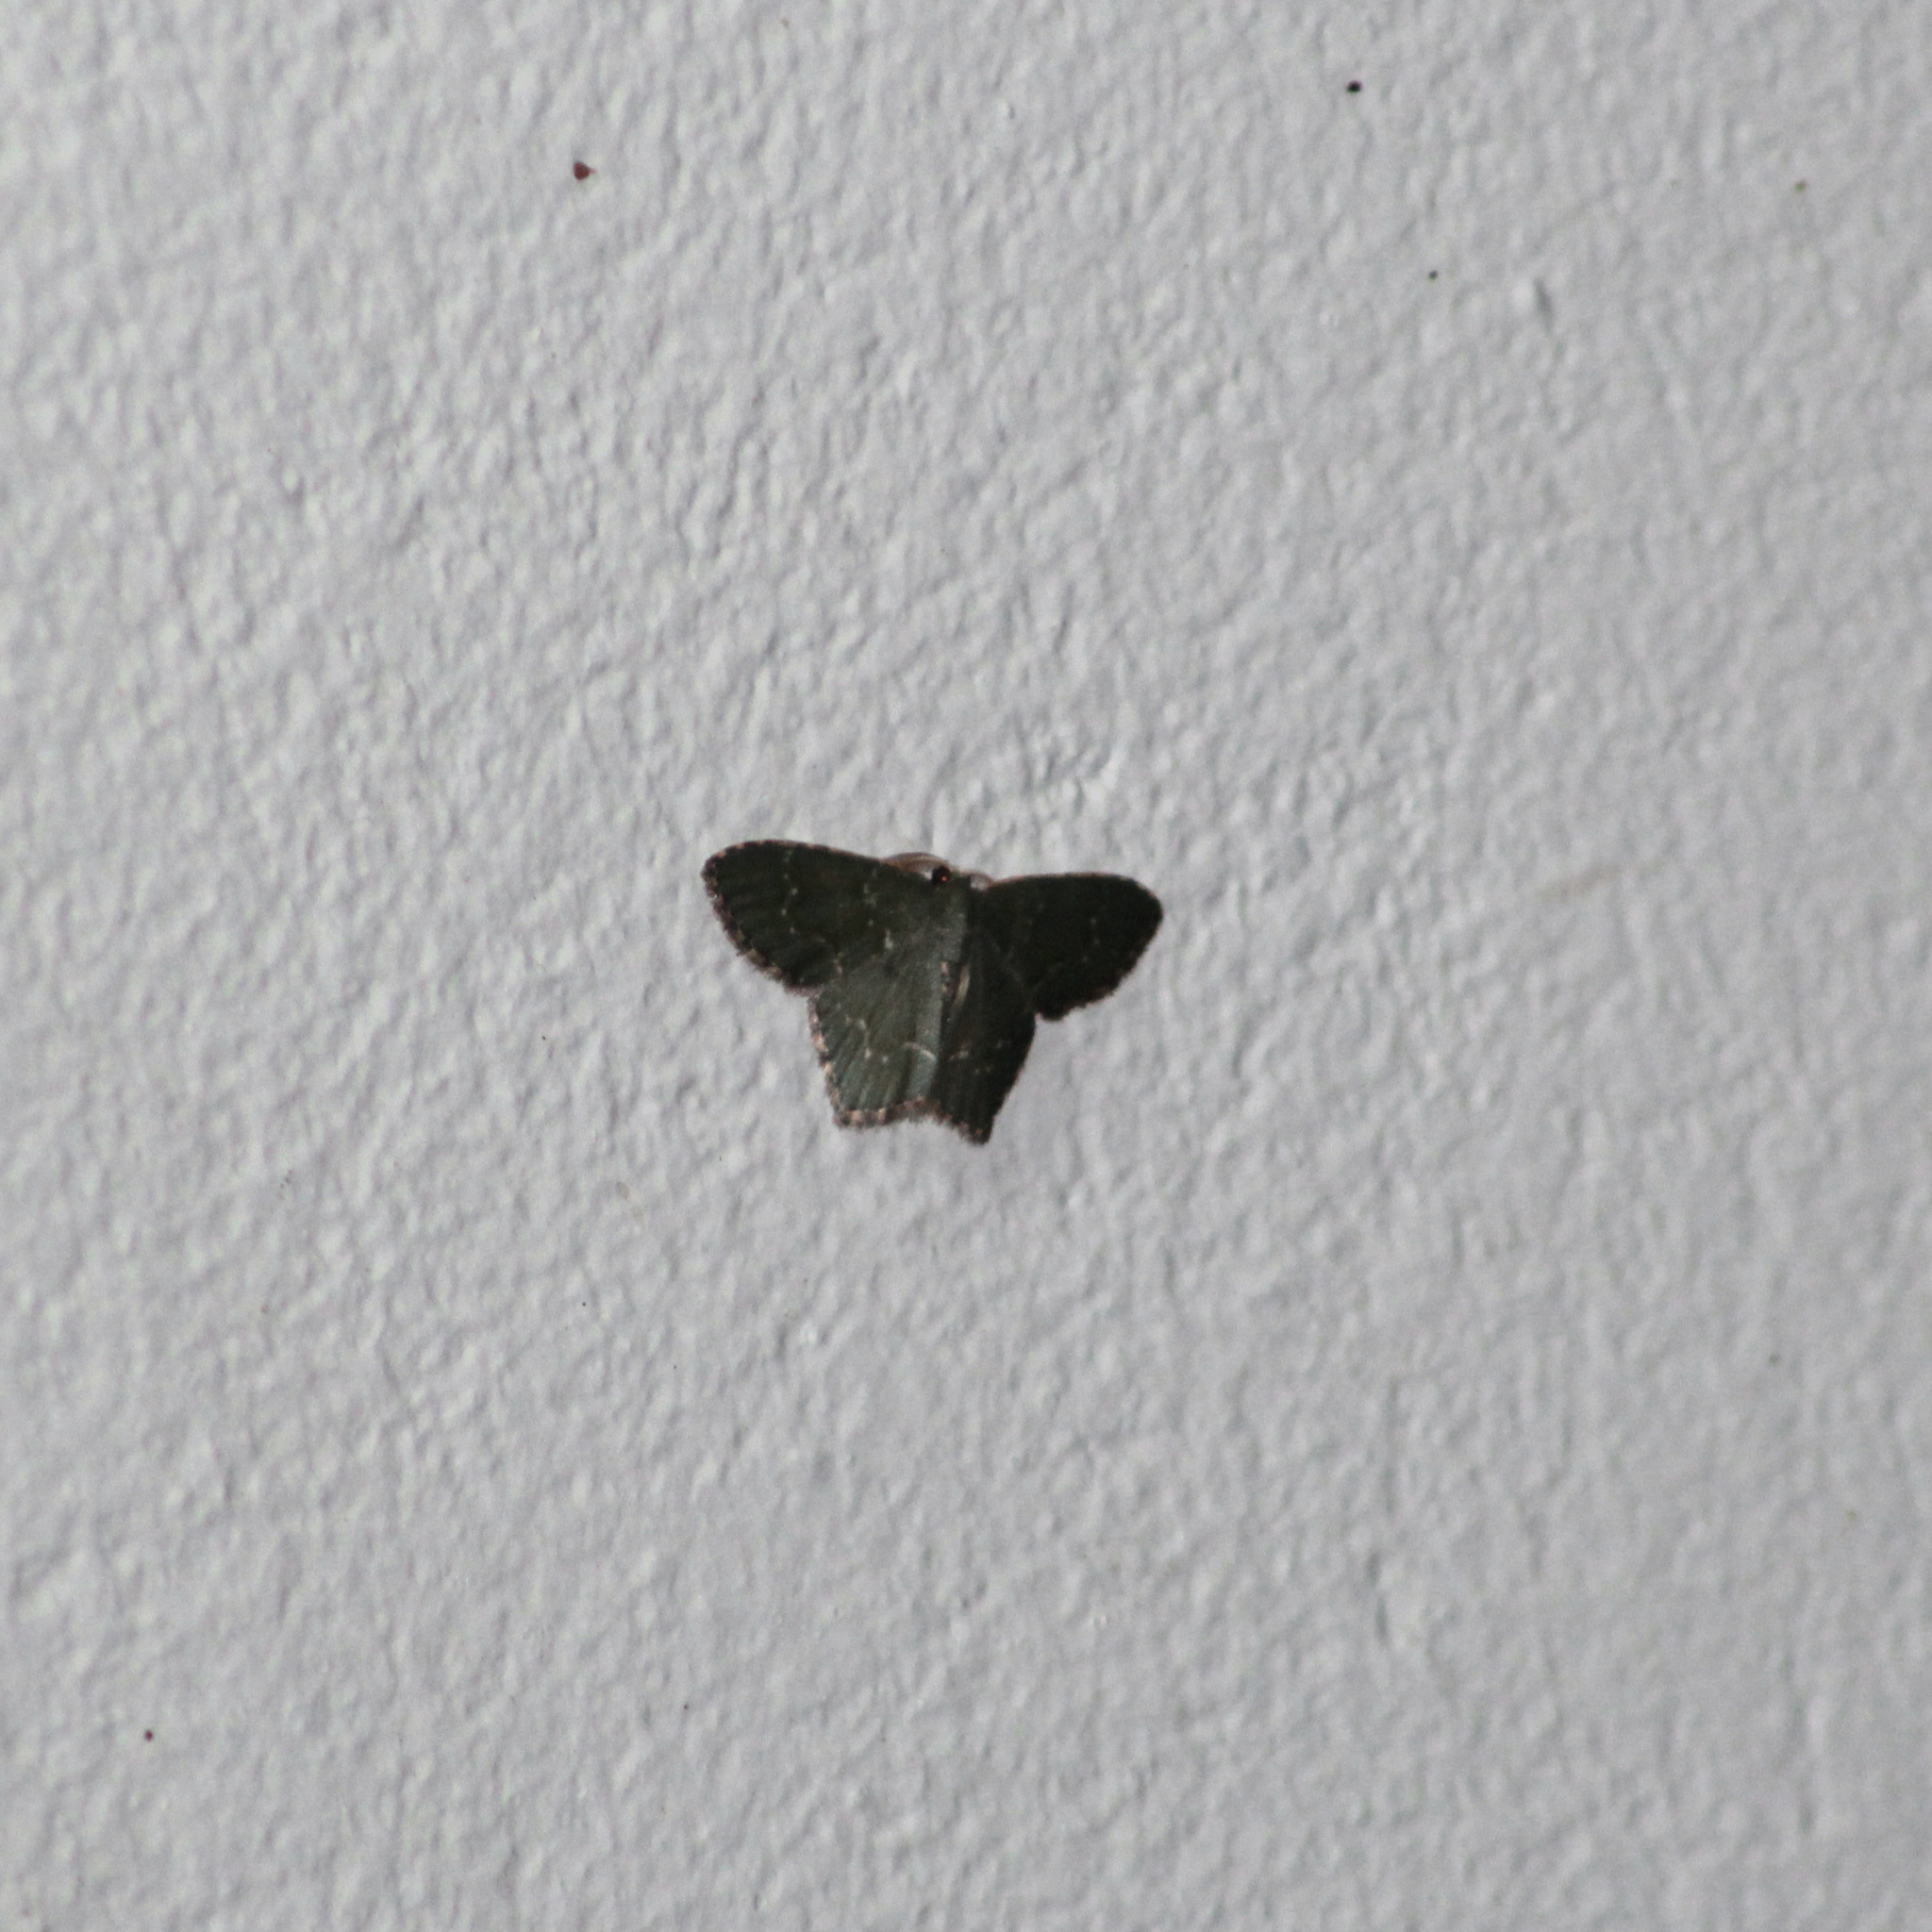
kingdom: Animalia
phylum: Arthropoda
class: Insecta
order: Lepidoptera
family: Geometridae
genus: Chloropteryx
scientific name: Chloropteryx punctilinea
